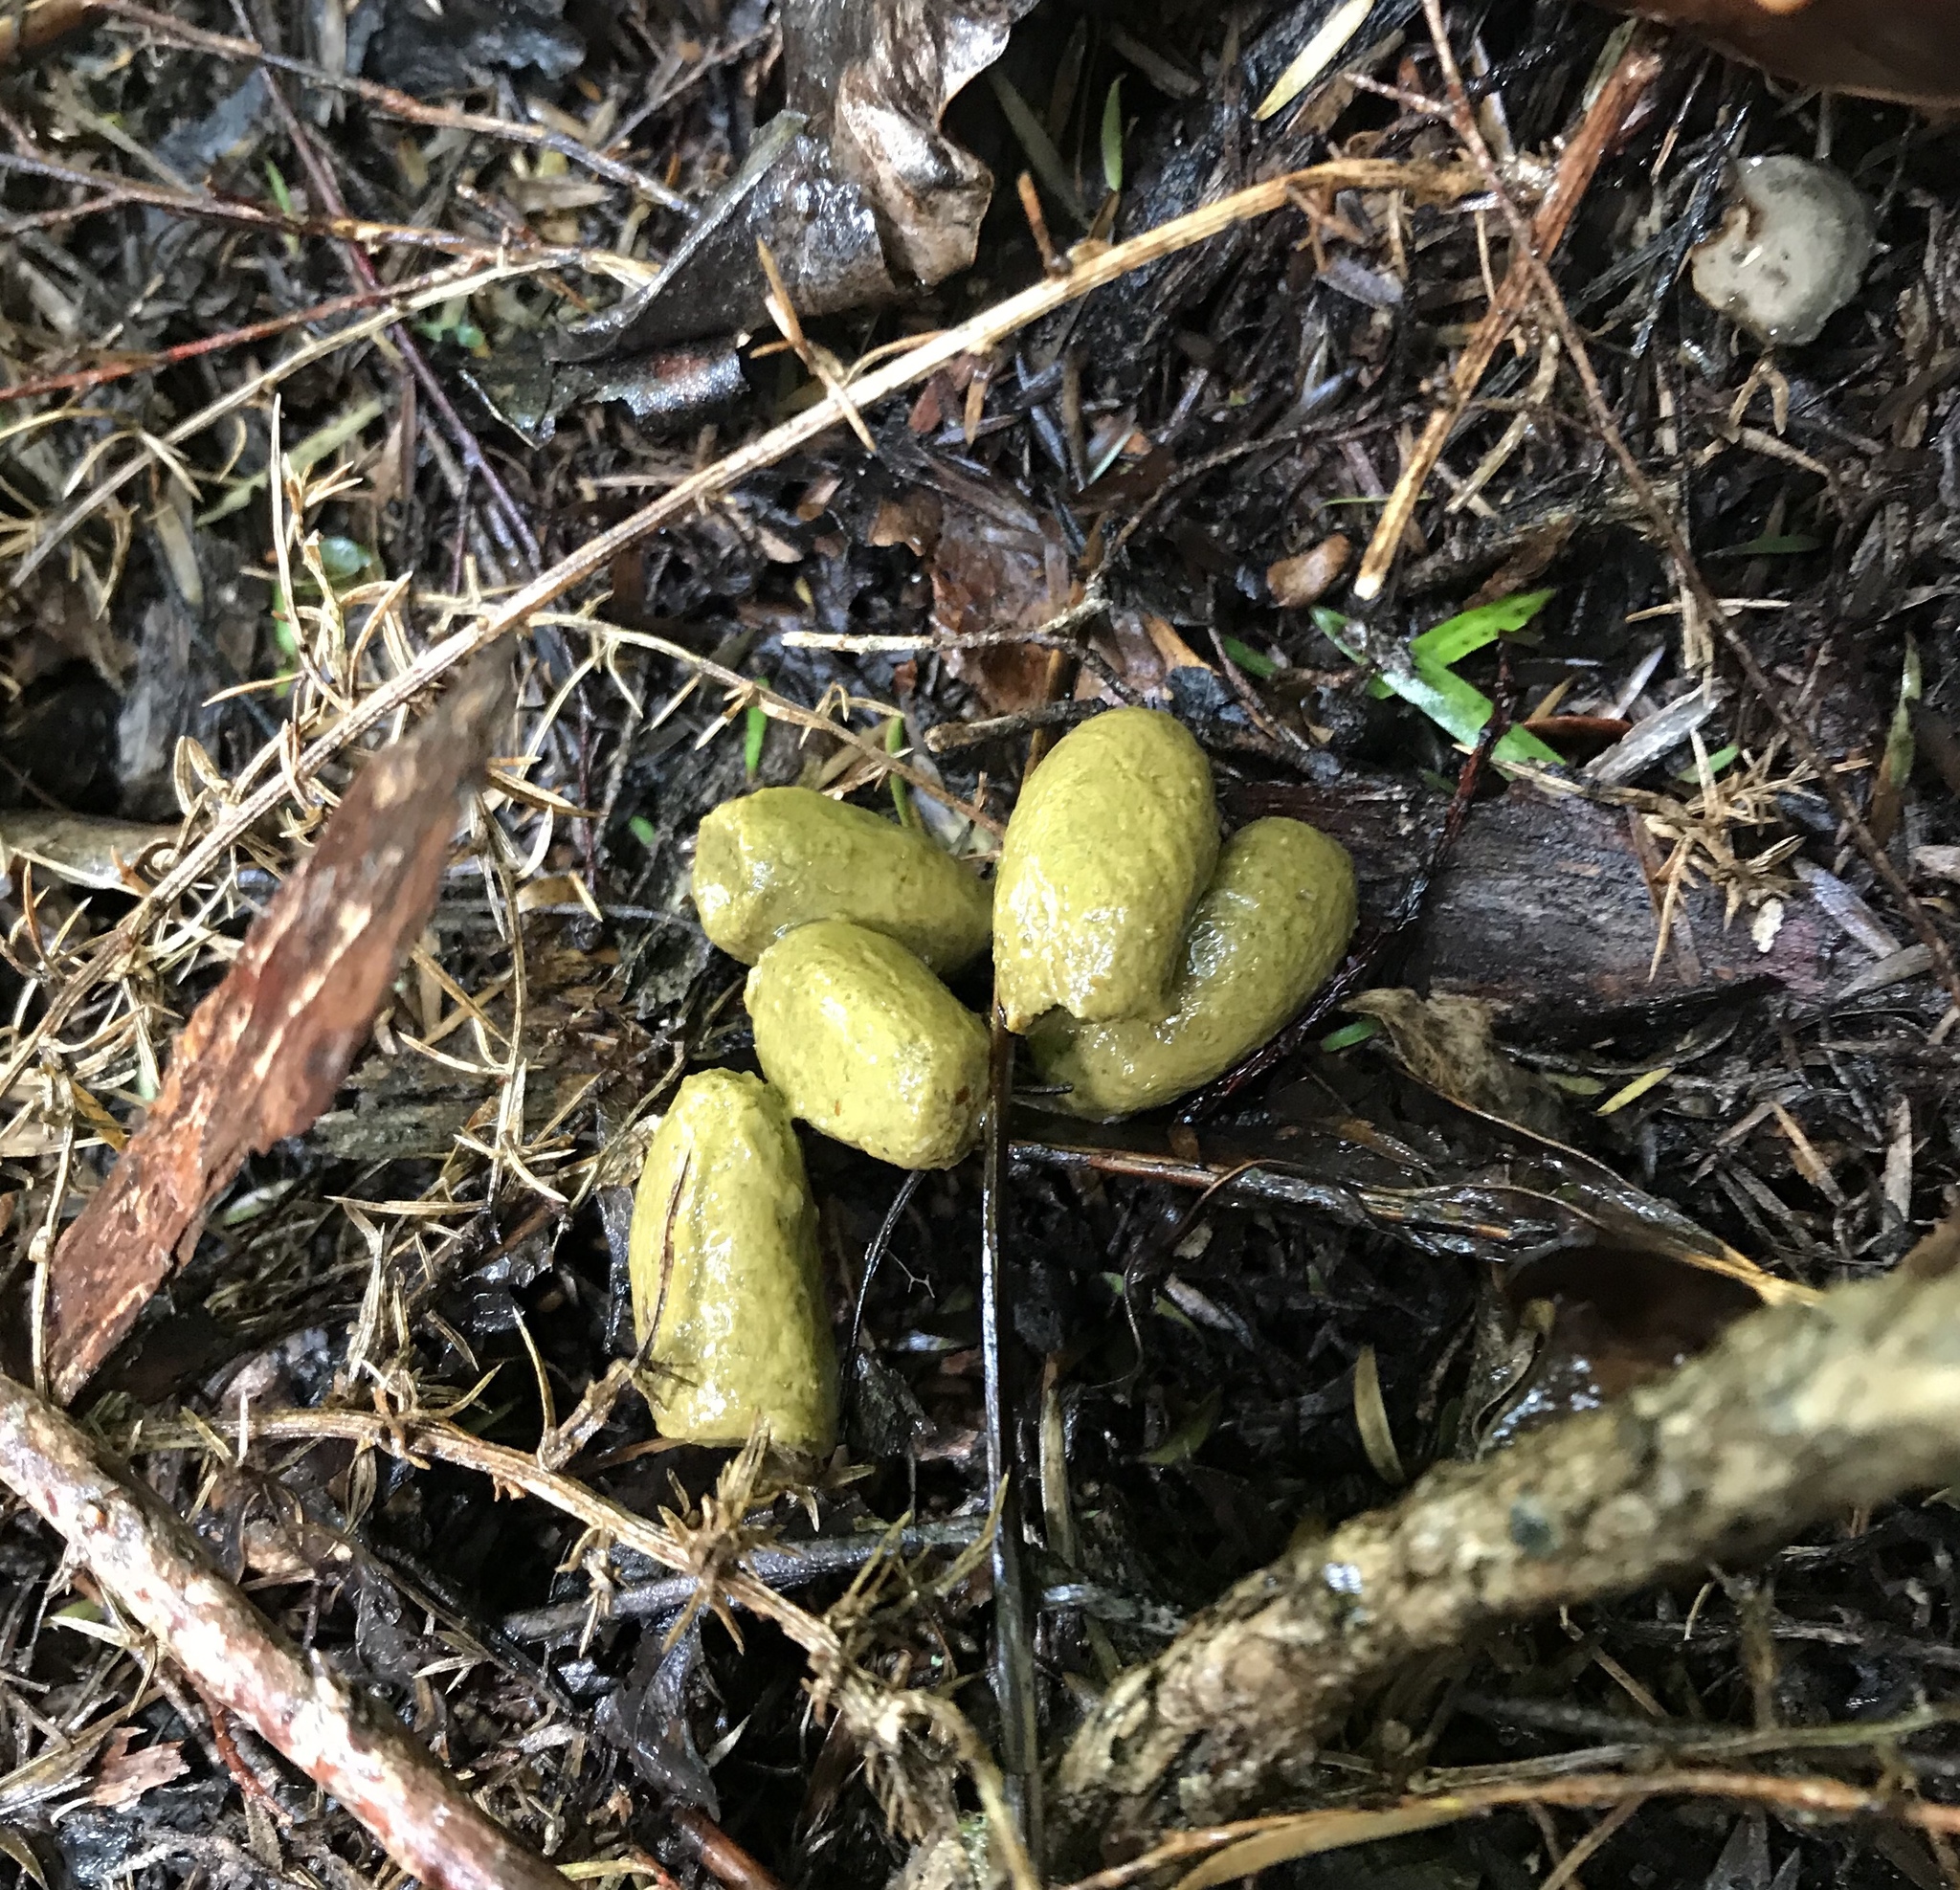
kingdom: Animalia
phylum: Chordata
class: Mammalia
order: Diprotodontia
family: Phalangeridae
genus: Trichosurus
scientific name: Trichosurus vulpecula
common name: Common brushtail
